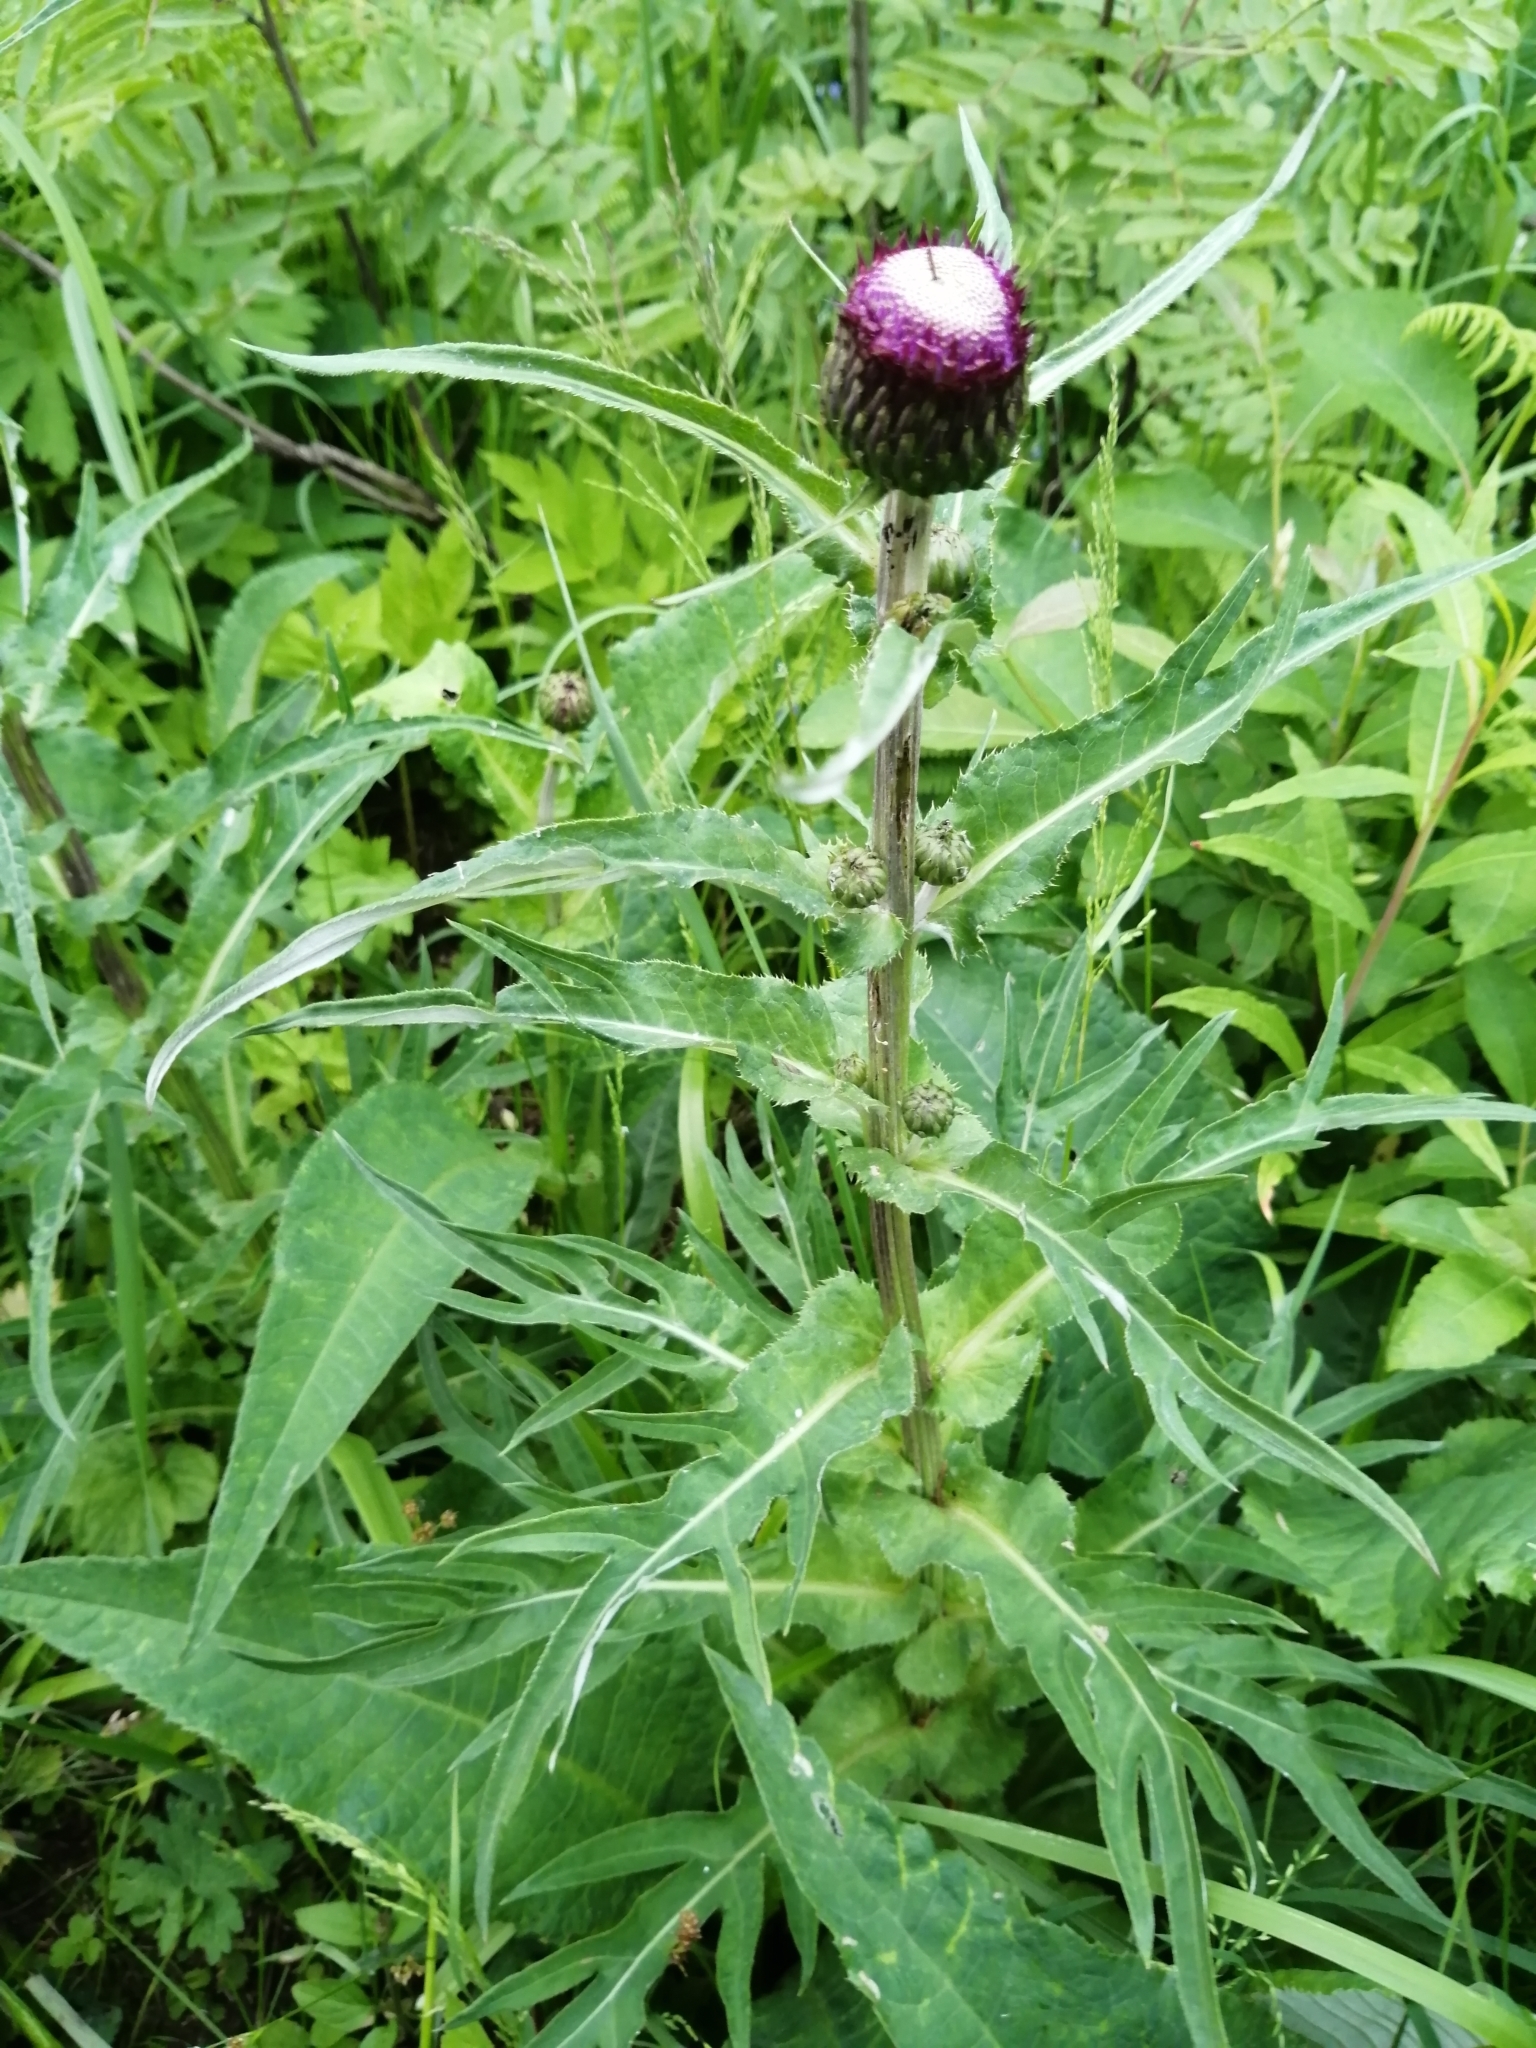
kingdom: Plantae
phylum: Tracheophyta
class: Magnoliopsida
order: Asterales
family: Asteraceae
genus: Cirsium
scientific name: Cirsium heterophyllum
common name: Melancholy thistle
